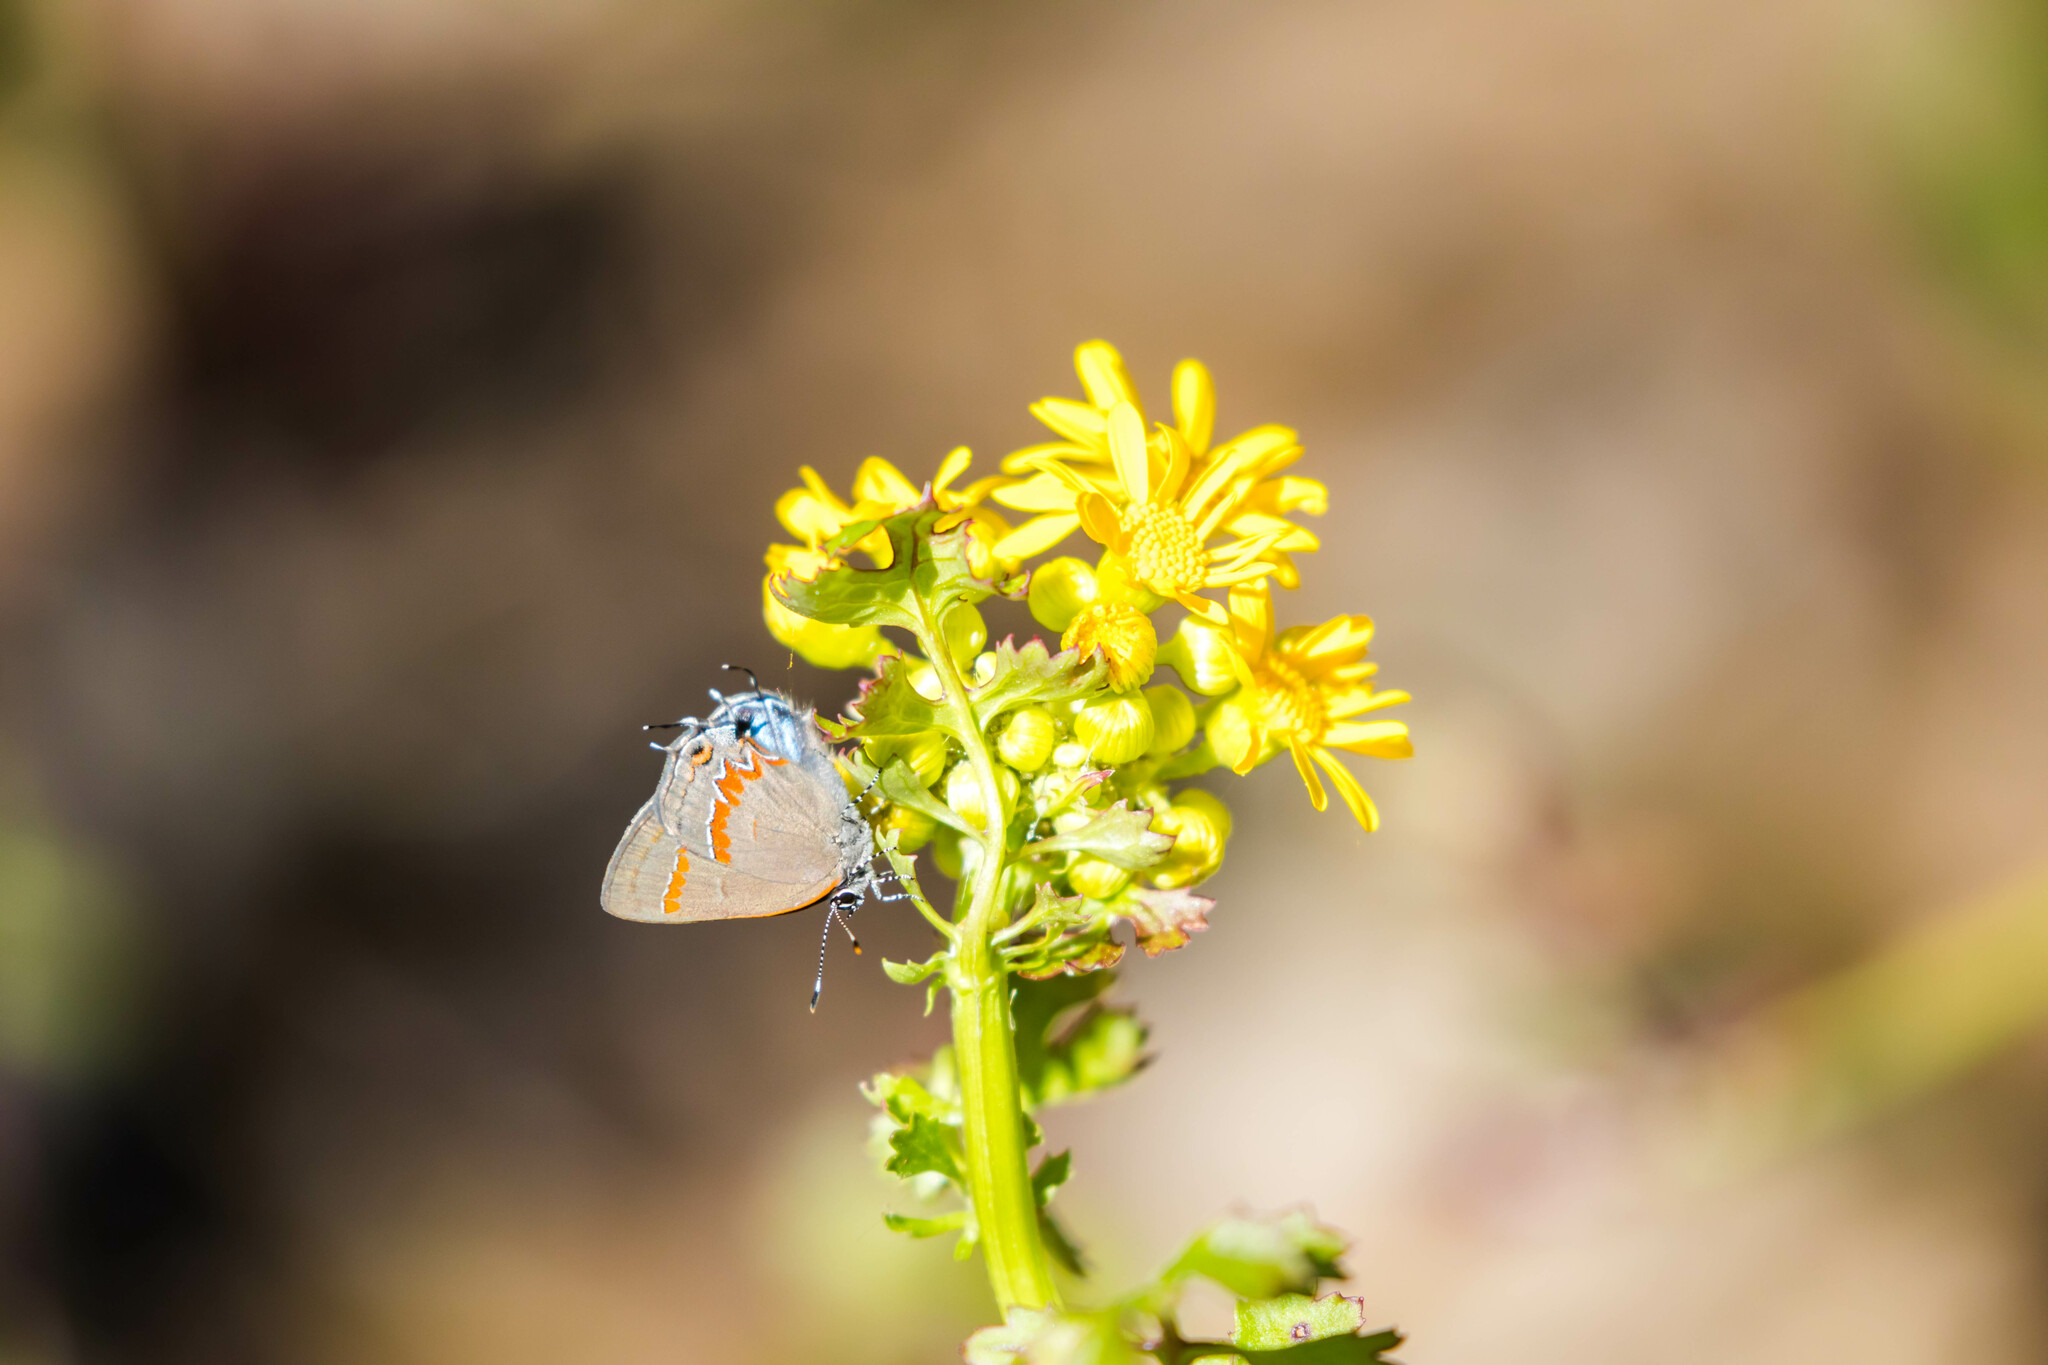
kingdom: Animalia
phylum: Arthropoda
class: Insecta
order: Lepidoptera
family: Lycaenidae
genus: Calycopis
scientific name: Calycopis cecrops
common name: Red-banded hairstreak
